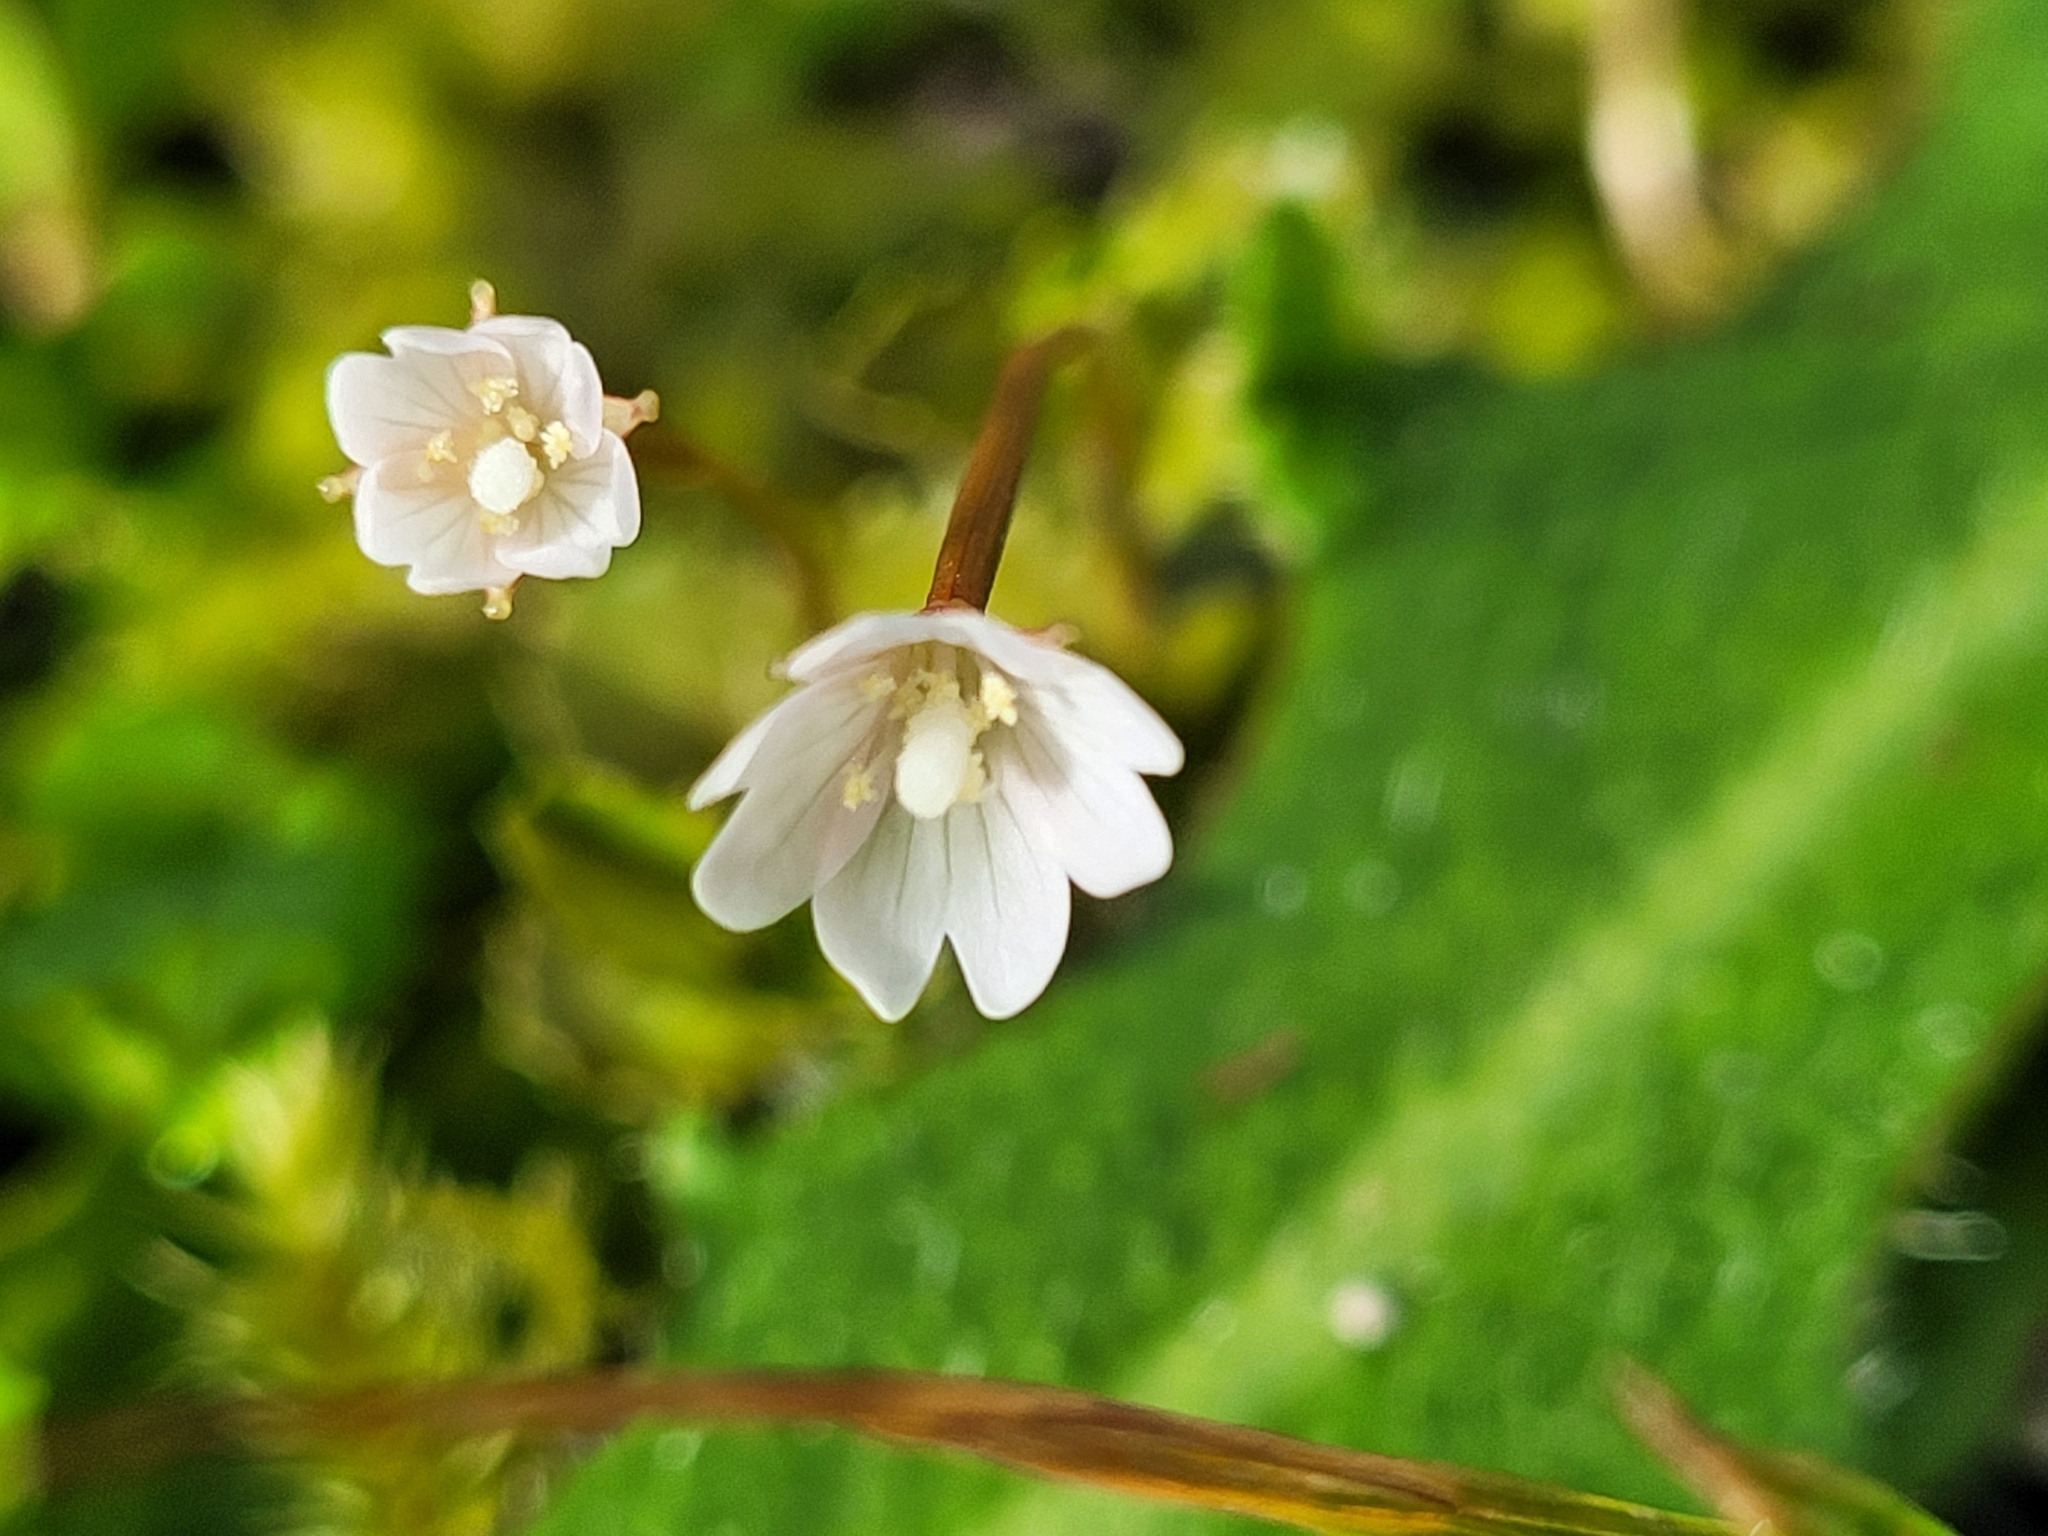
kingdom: Plantae
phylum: Tracheophyta
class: Magnoliopsida
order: Myrtales
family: Onagraceae
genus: Epilobium
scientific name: Epilobium pedunculare
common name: Rockery willowherb
